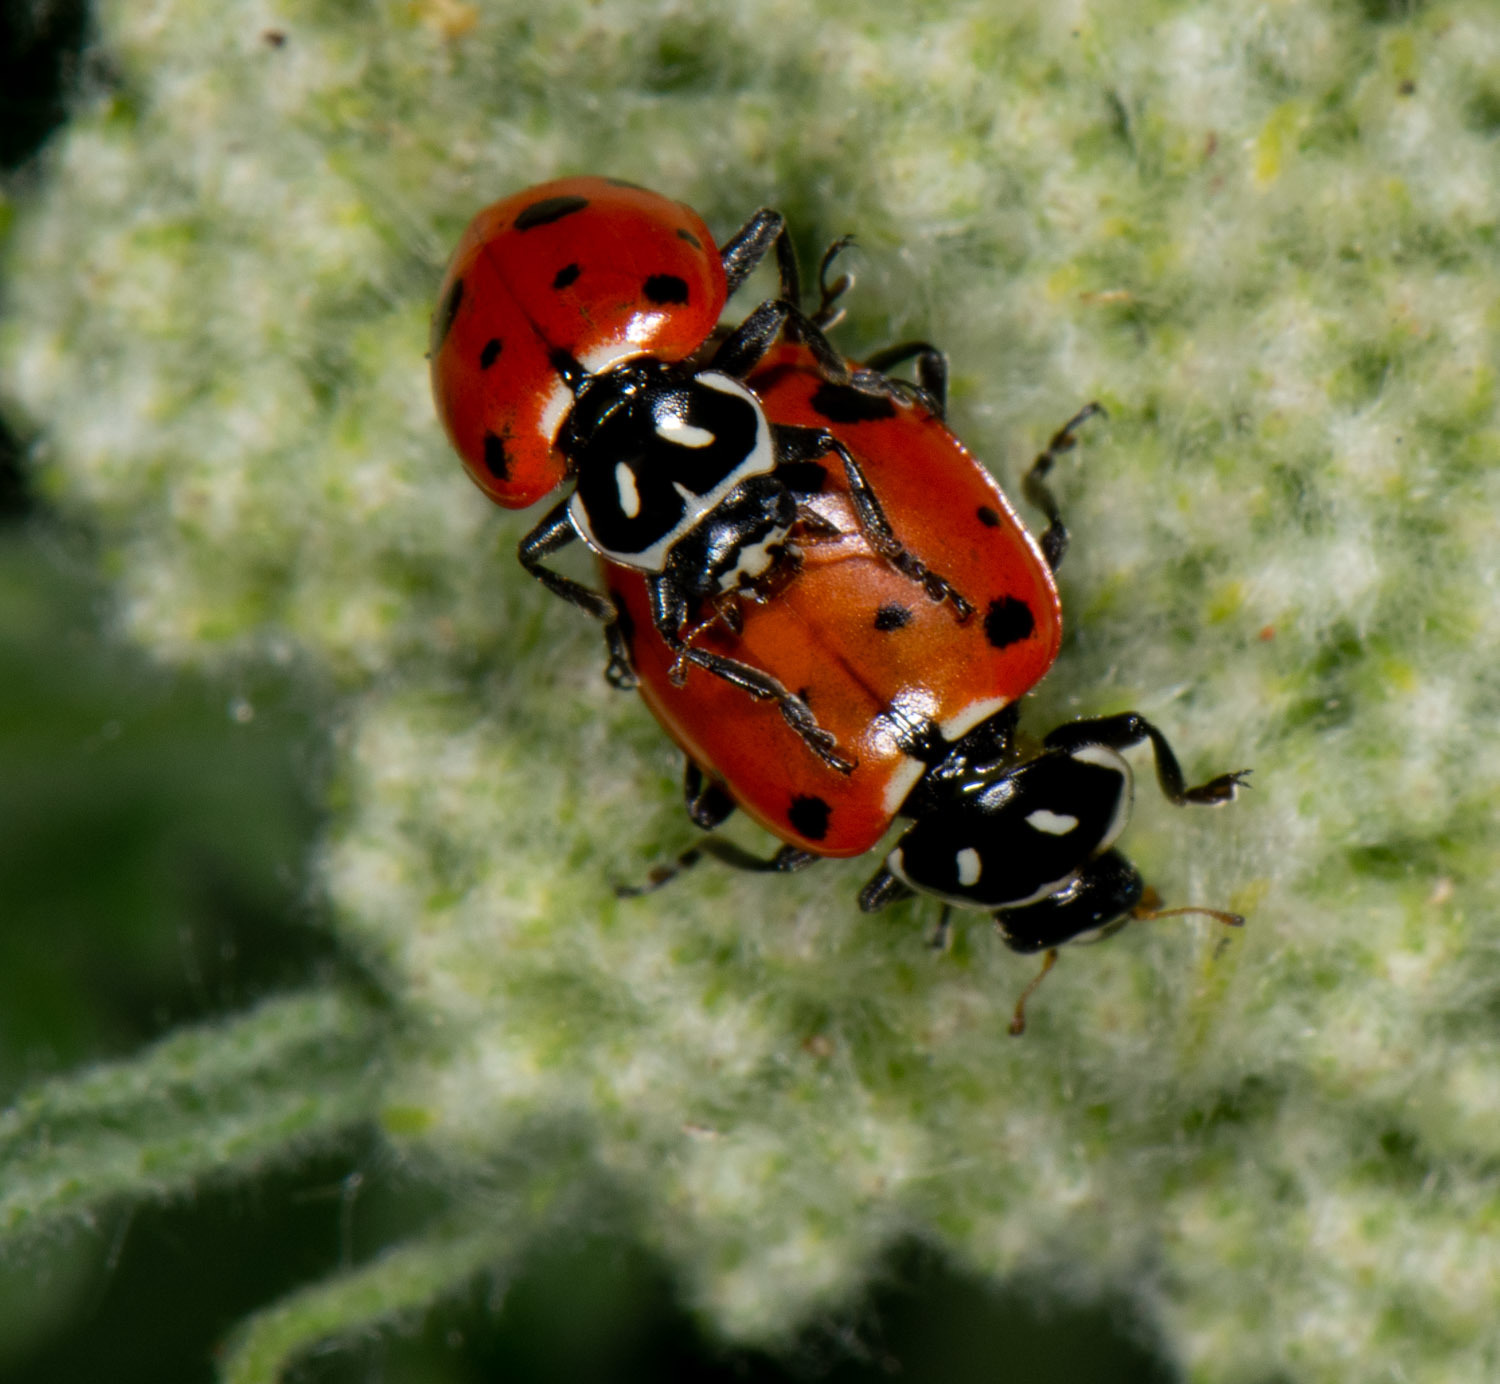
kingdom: Animalia
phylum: Arthropoda
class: Insecta
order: Coleoptera
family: Coccinellidae
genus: Hippodamia
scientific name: Hippodamia convergens
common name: Convergent lady beetle
